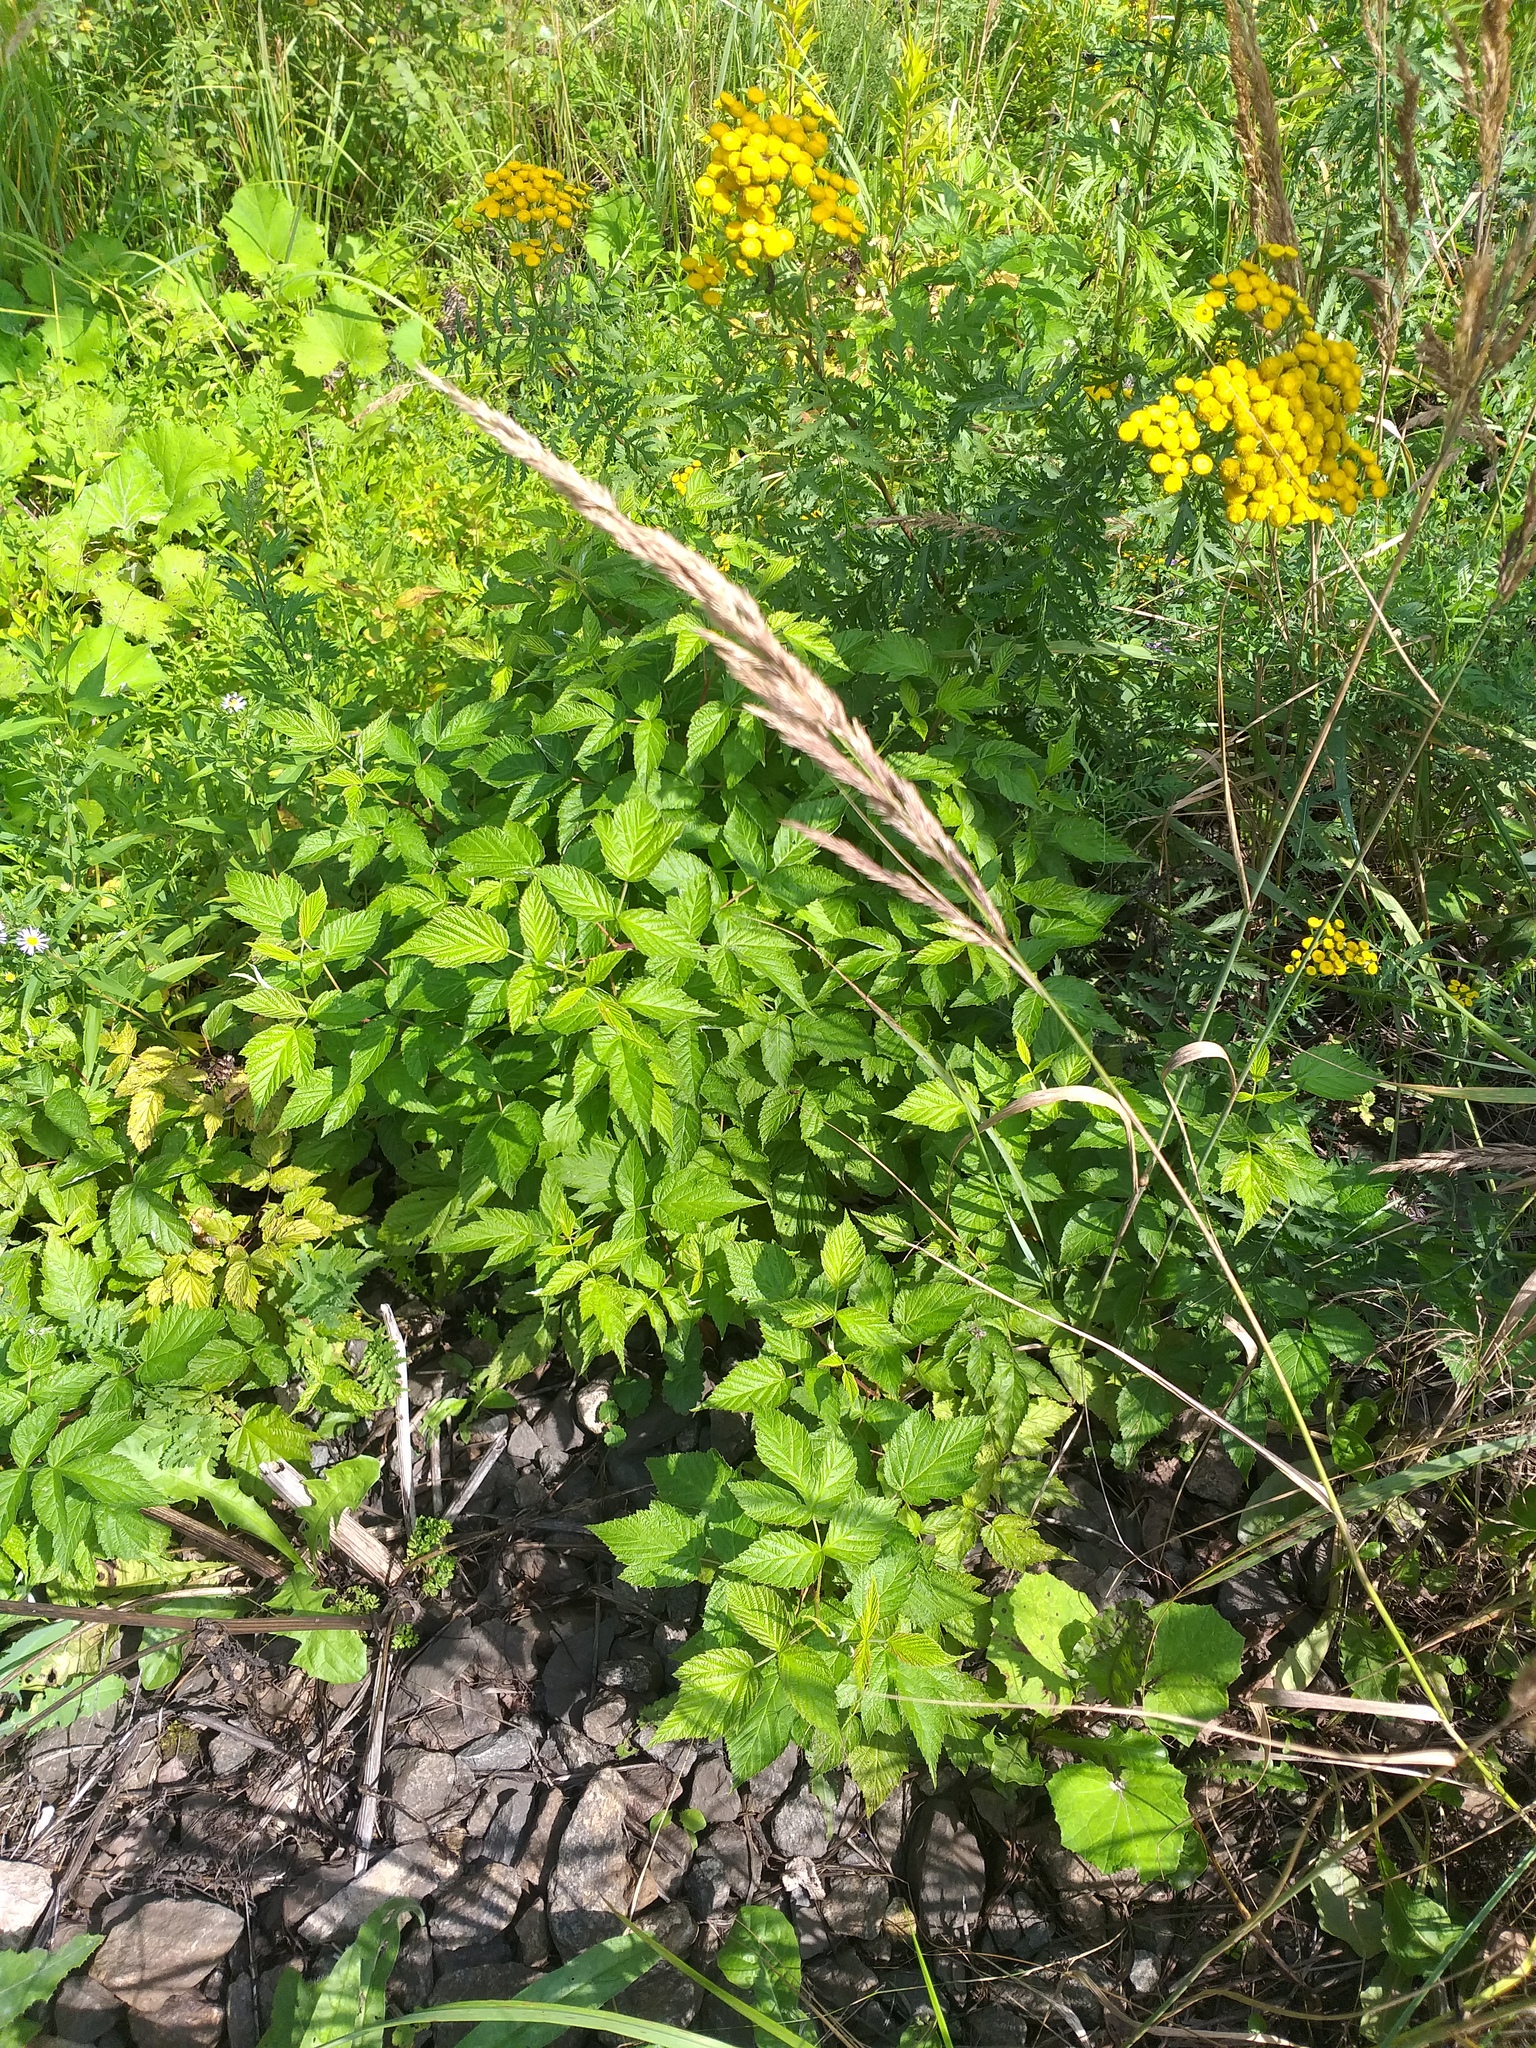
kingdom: Plantae
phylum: Tracheophyta
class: Magnoliopsida
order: Rosales
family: Rosaceae
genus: Rubus
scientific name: Rubus idaeus
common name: Raspberry
